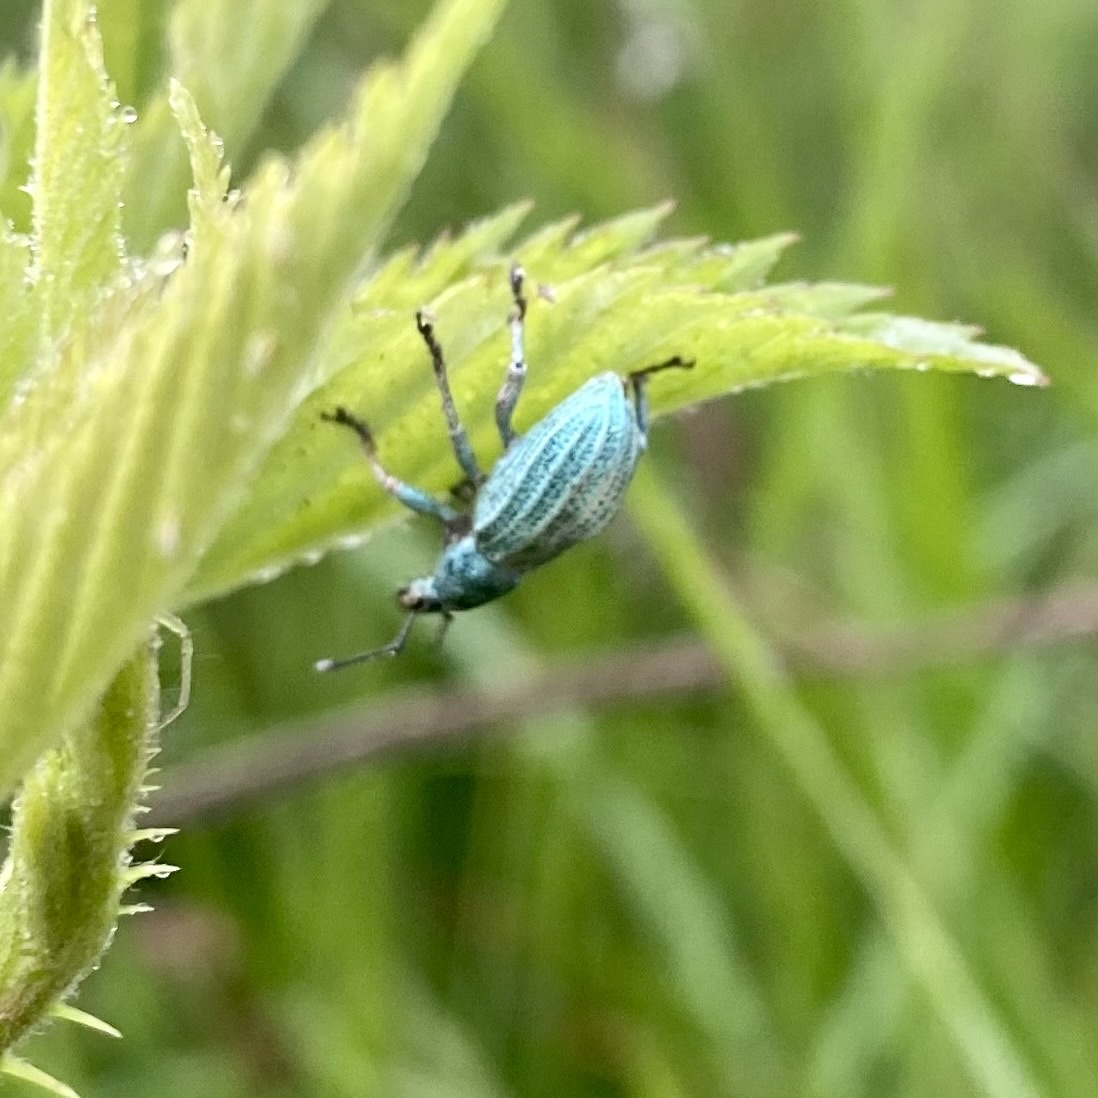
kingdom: Animalia
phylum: Arthropoda
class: Insecta
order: Coleoptera
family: Curculionidae
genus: Compsus
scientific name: Compsus auricephalus
